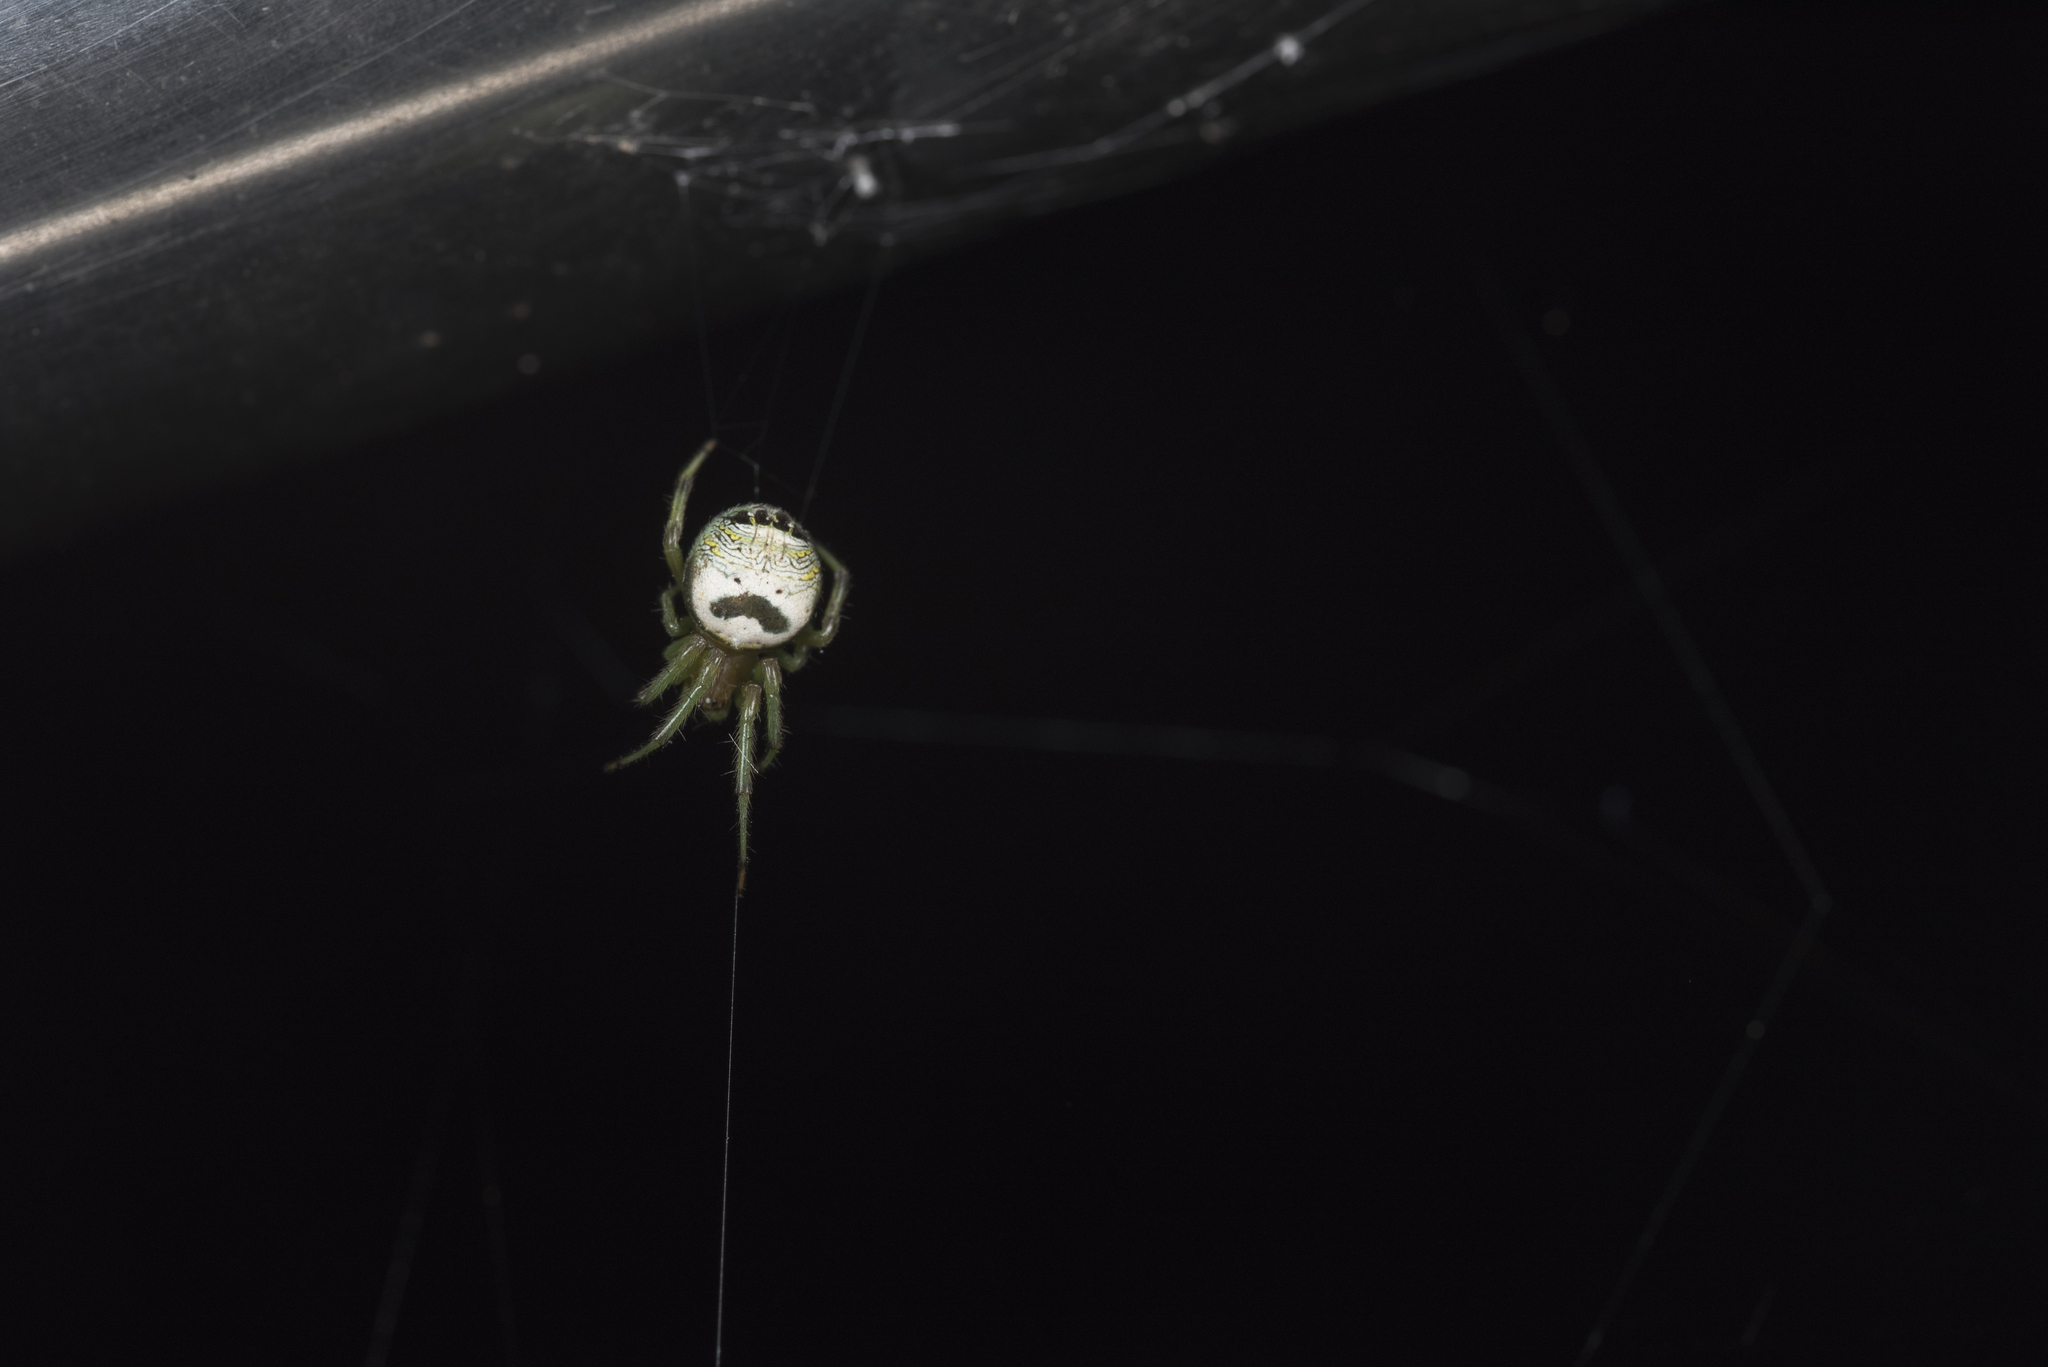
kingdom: Animalia
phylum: Arthropoda
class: Arachnida
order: Araneae
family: Araneidae
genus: Bijoaraneus
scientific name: Bijoaraneus mitificus
